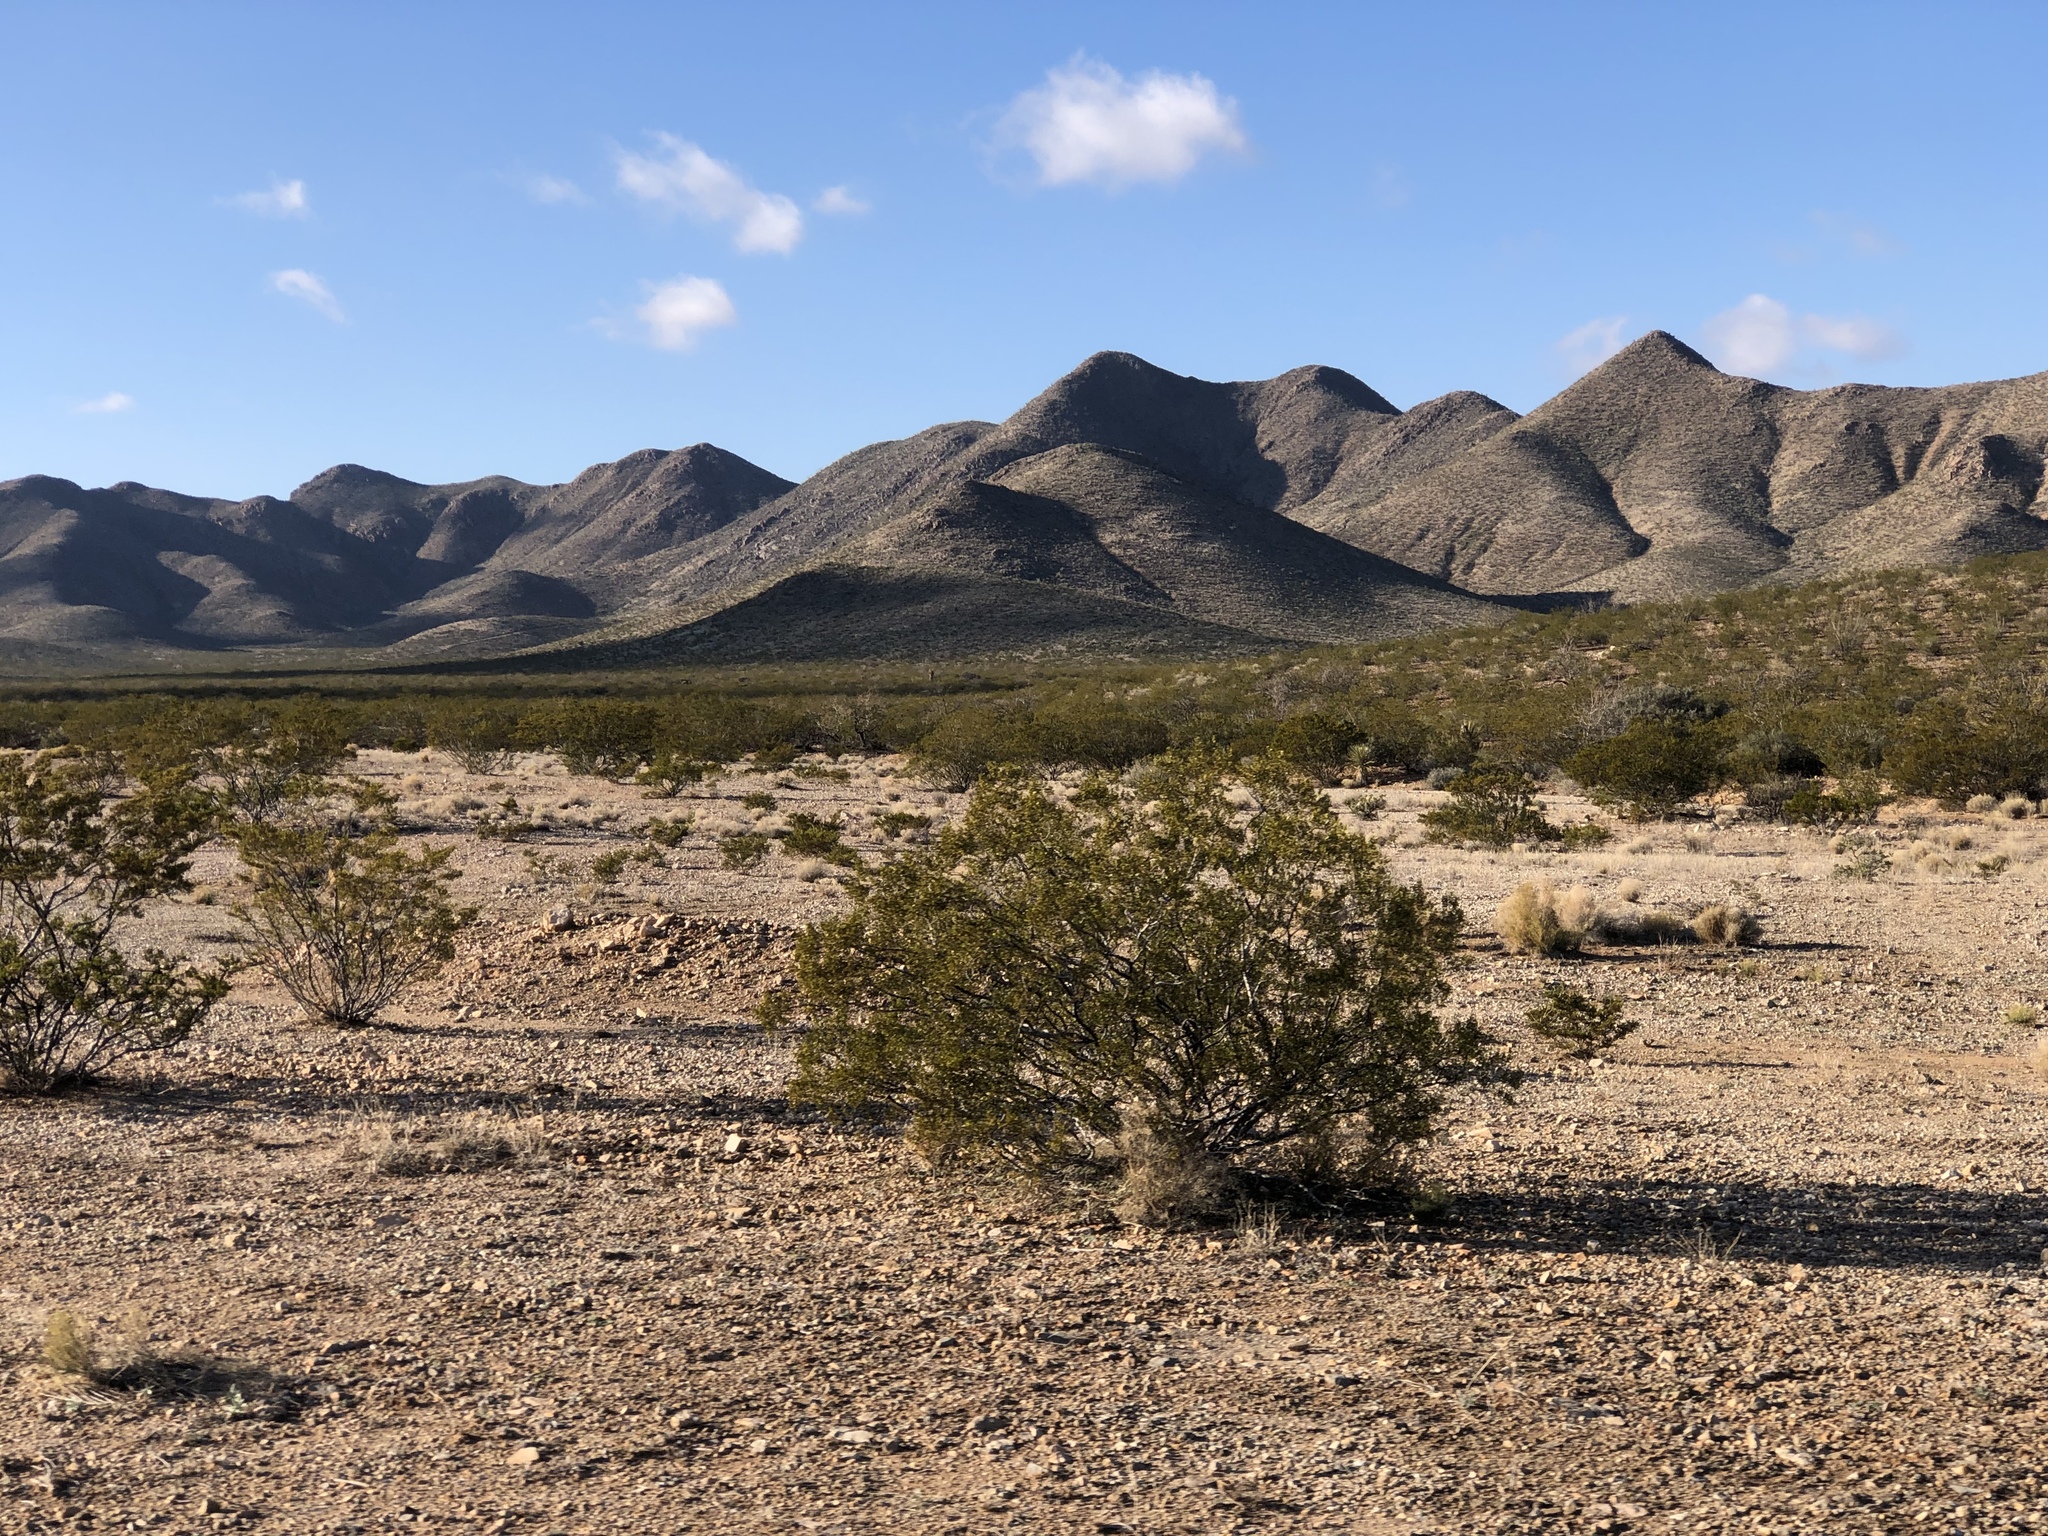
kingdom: Plantae
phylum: Tracheophyta
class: Magnoliopsida
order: Zygophyllales
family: Zygophyllaceae
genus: Larrea
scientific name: Larrea tridentata
